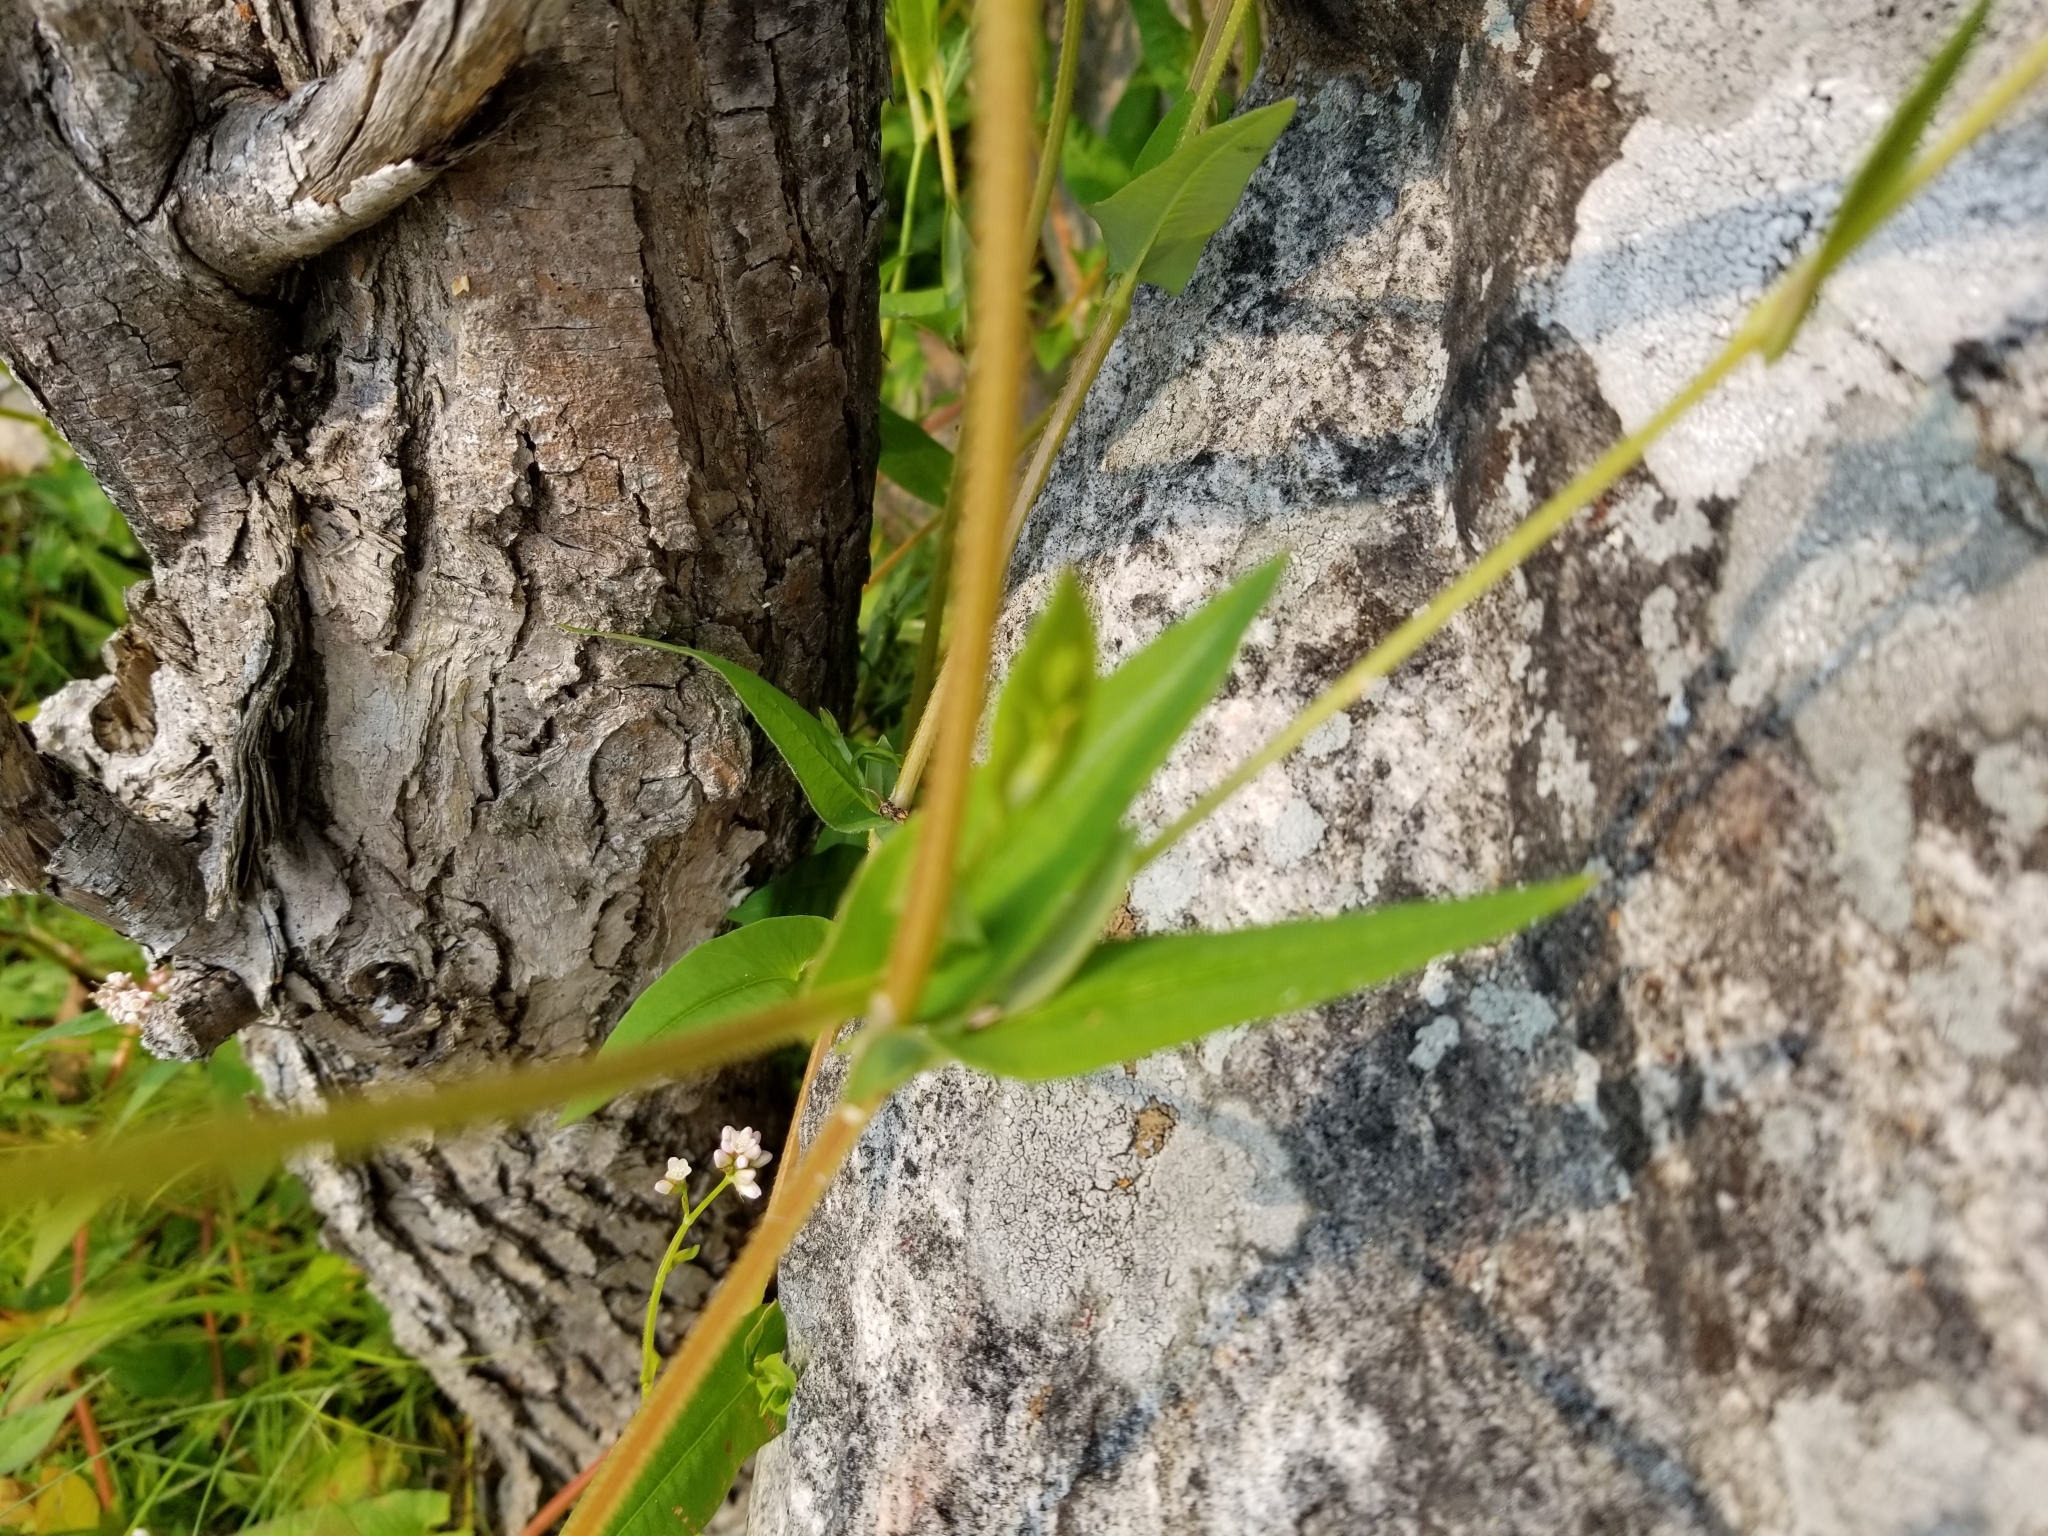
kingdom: Plantae
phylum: Tracheophyta
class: Magnoliopsida
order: Caryophyllales
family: Polygonaceae
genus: Persicaria
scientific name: Persicaria sagittata
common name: American tearthumb
